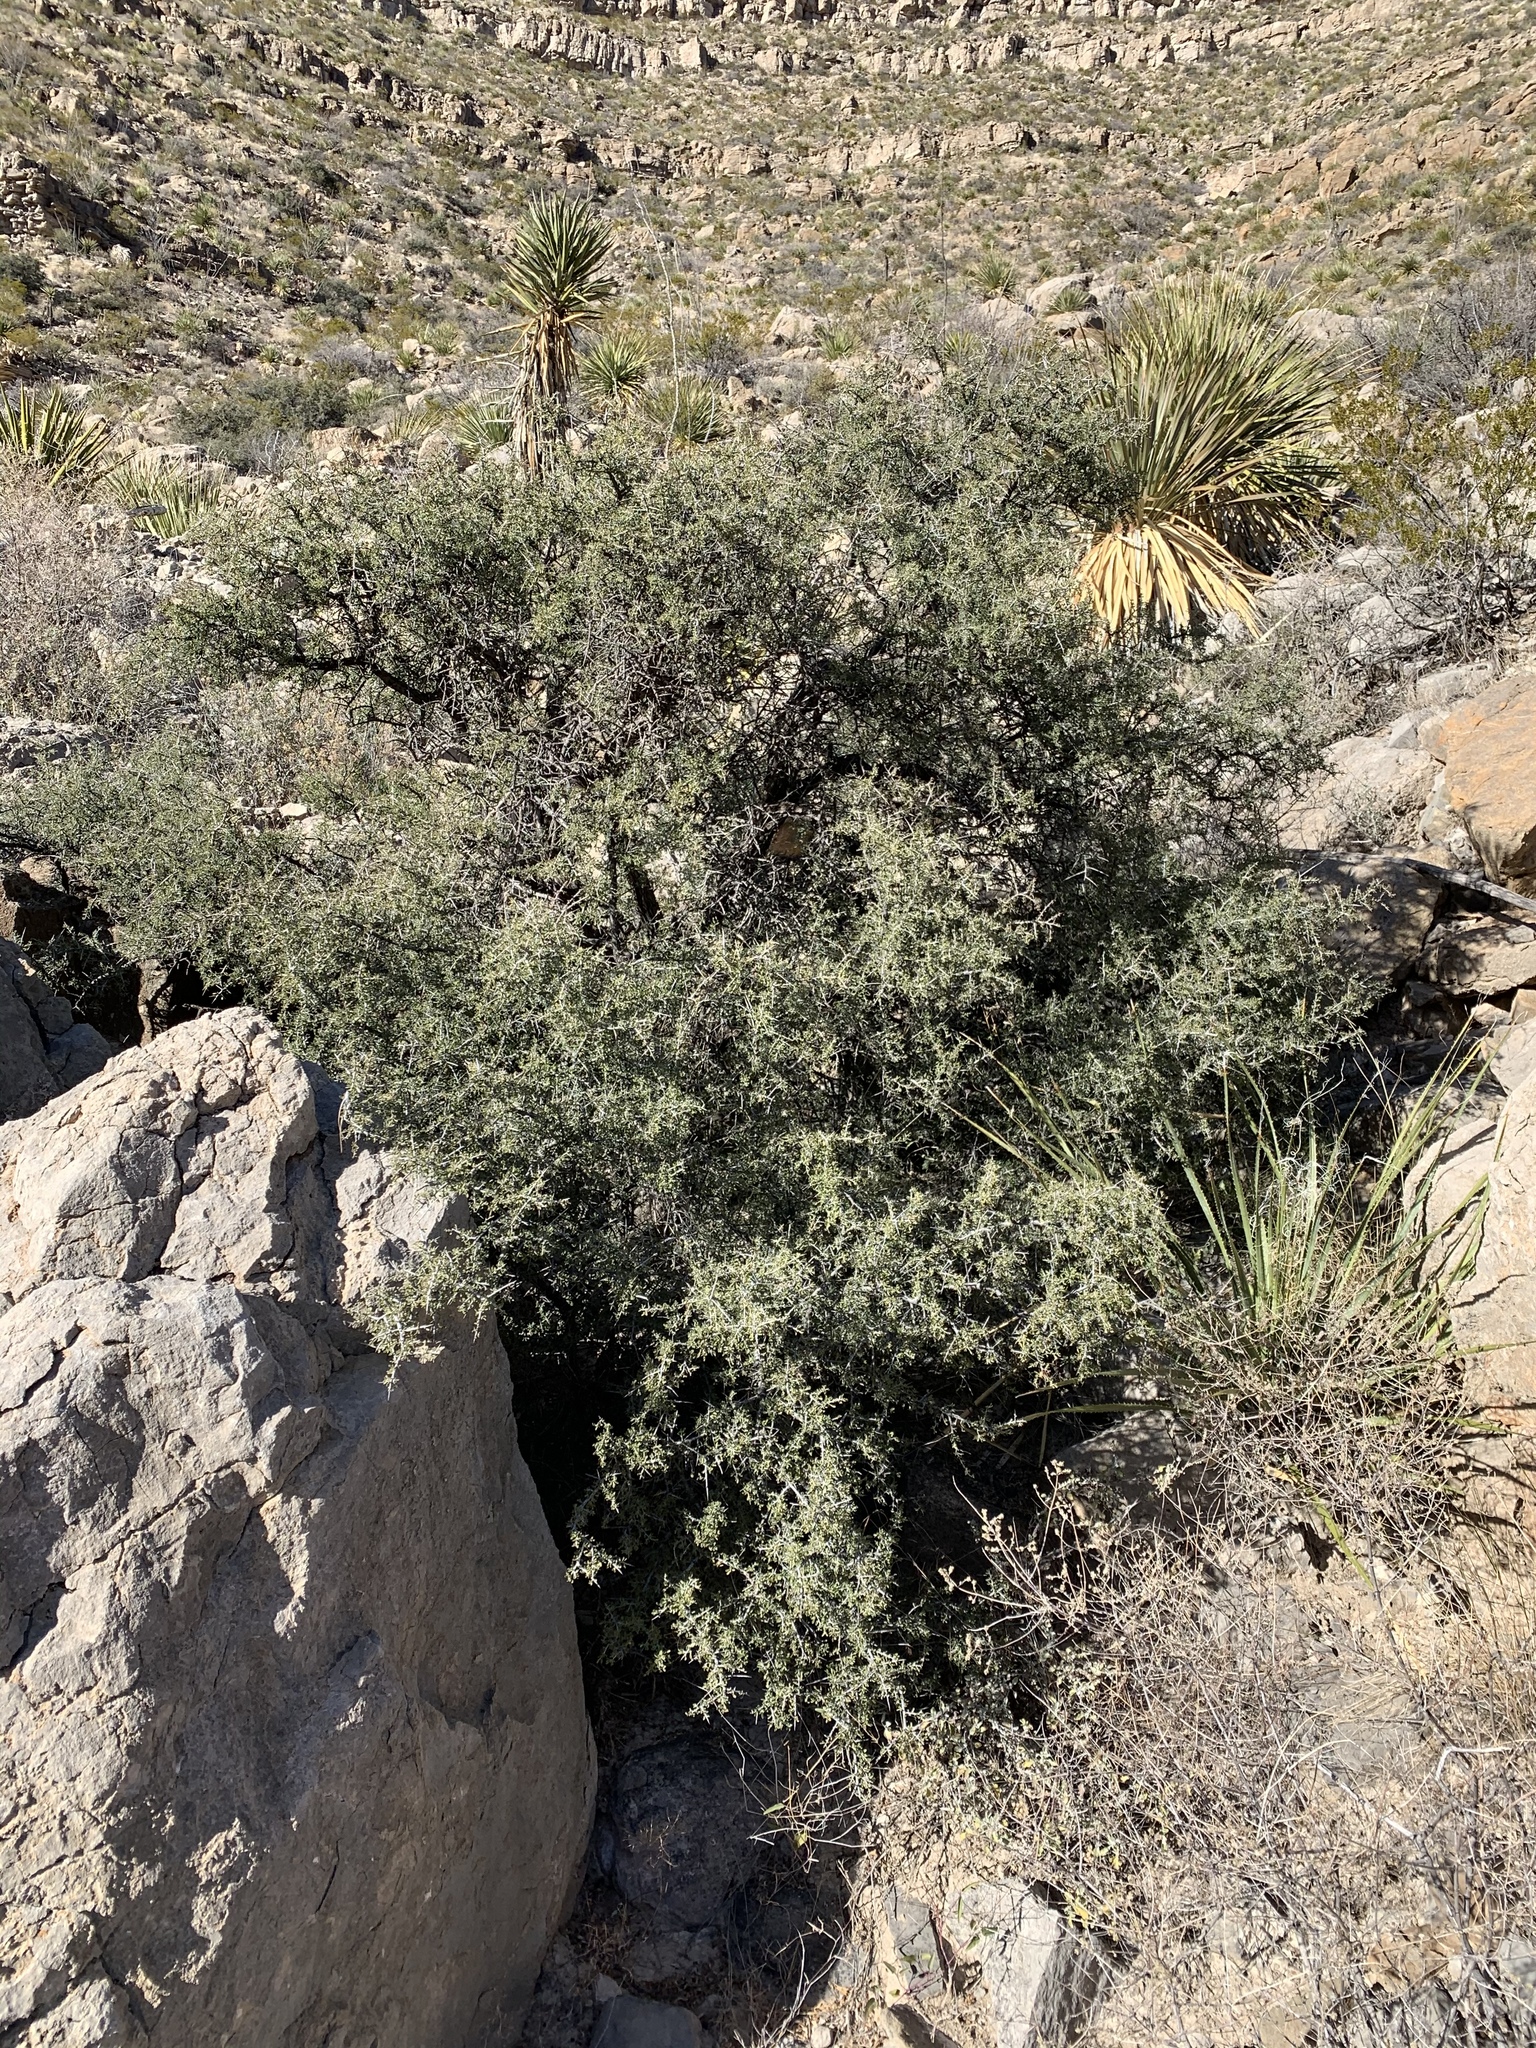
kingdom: Plantae
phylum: Tracheophyta
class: Magnoliopsida
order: Rosales
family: Rhamnaceae
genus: Condalia
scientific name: Condalia warnockii
